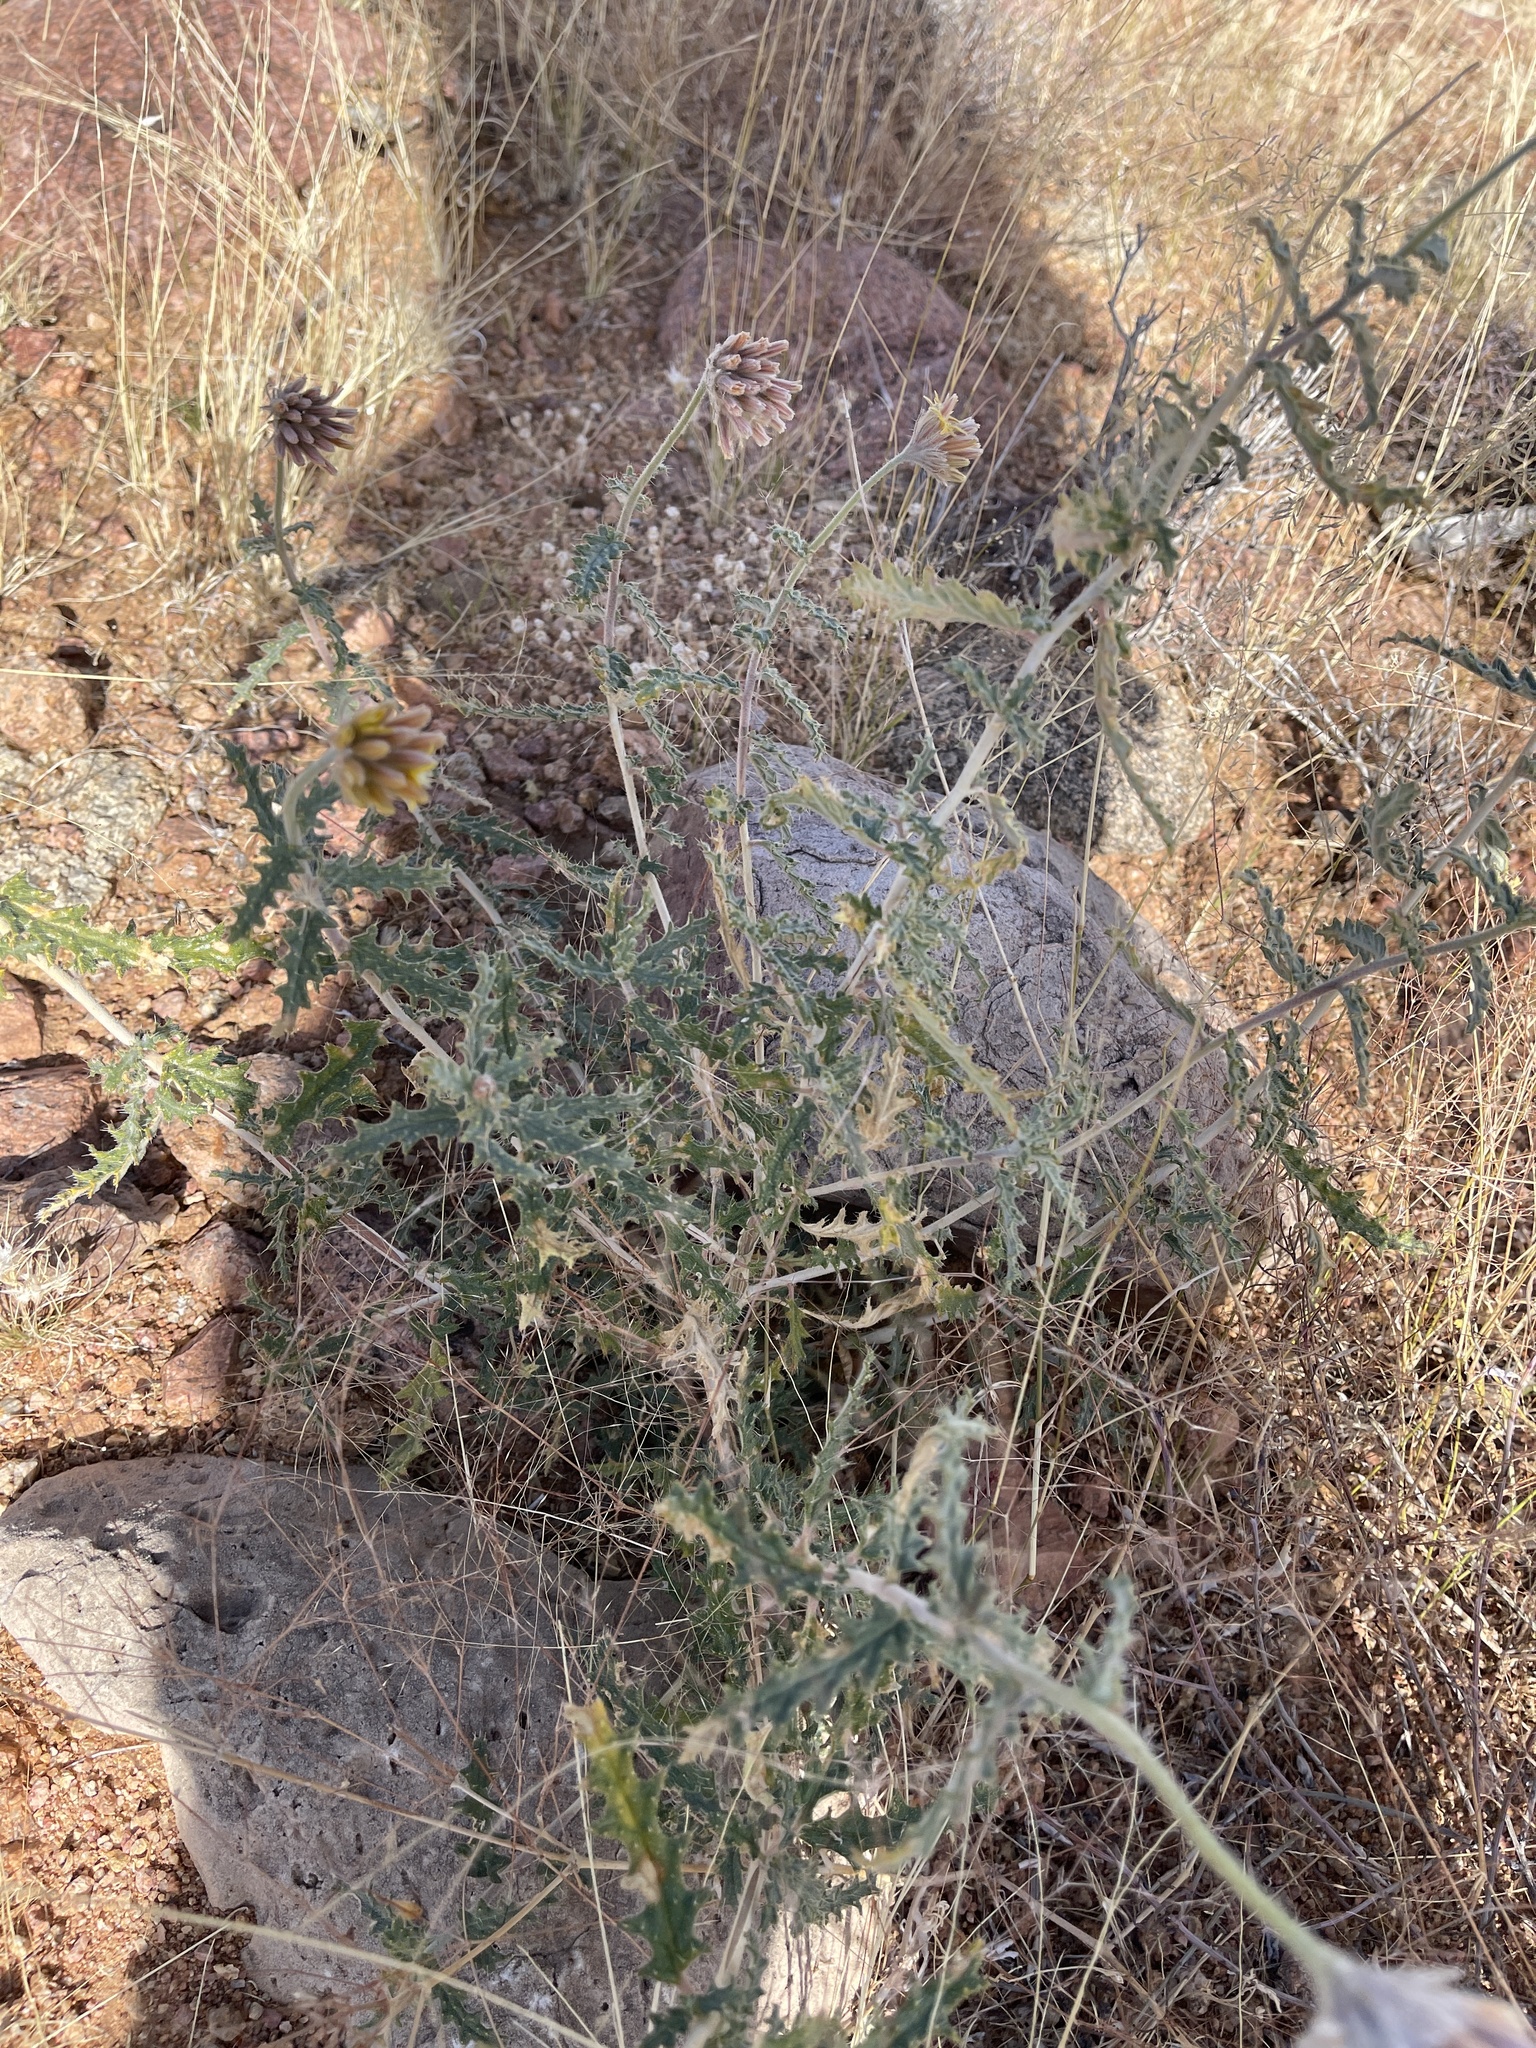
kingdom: Plantae
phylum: Tracheophyta
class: Magnoliopsida
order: Cornales
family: Loasaceae
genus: Cevallia
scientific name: Cevallia sinuata
